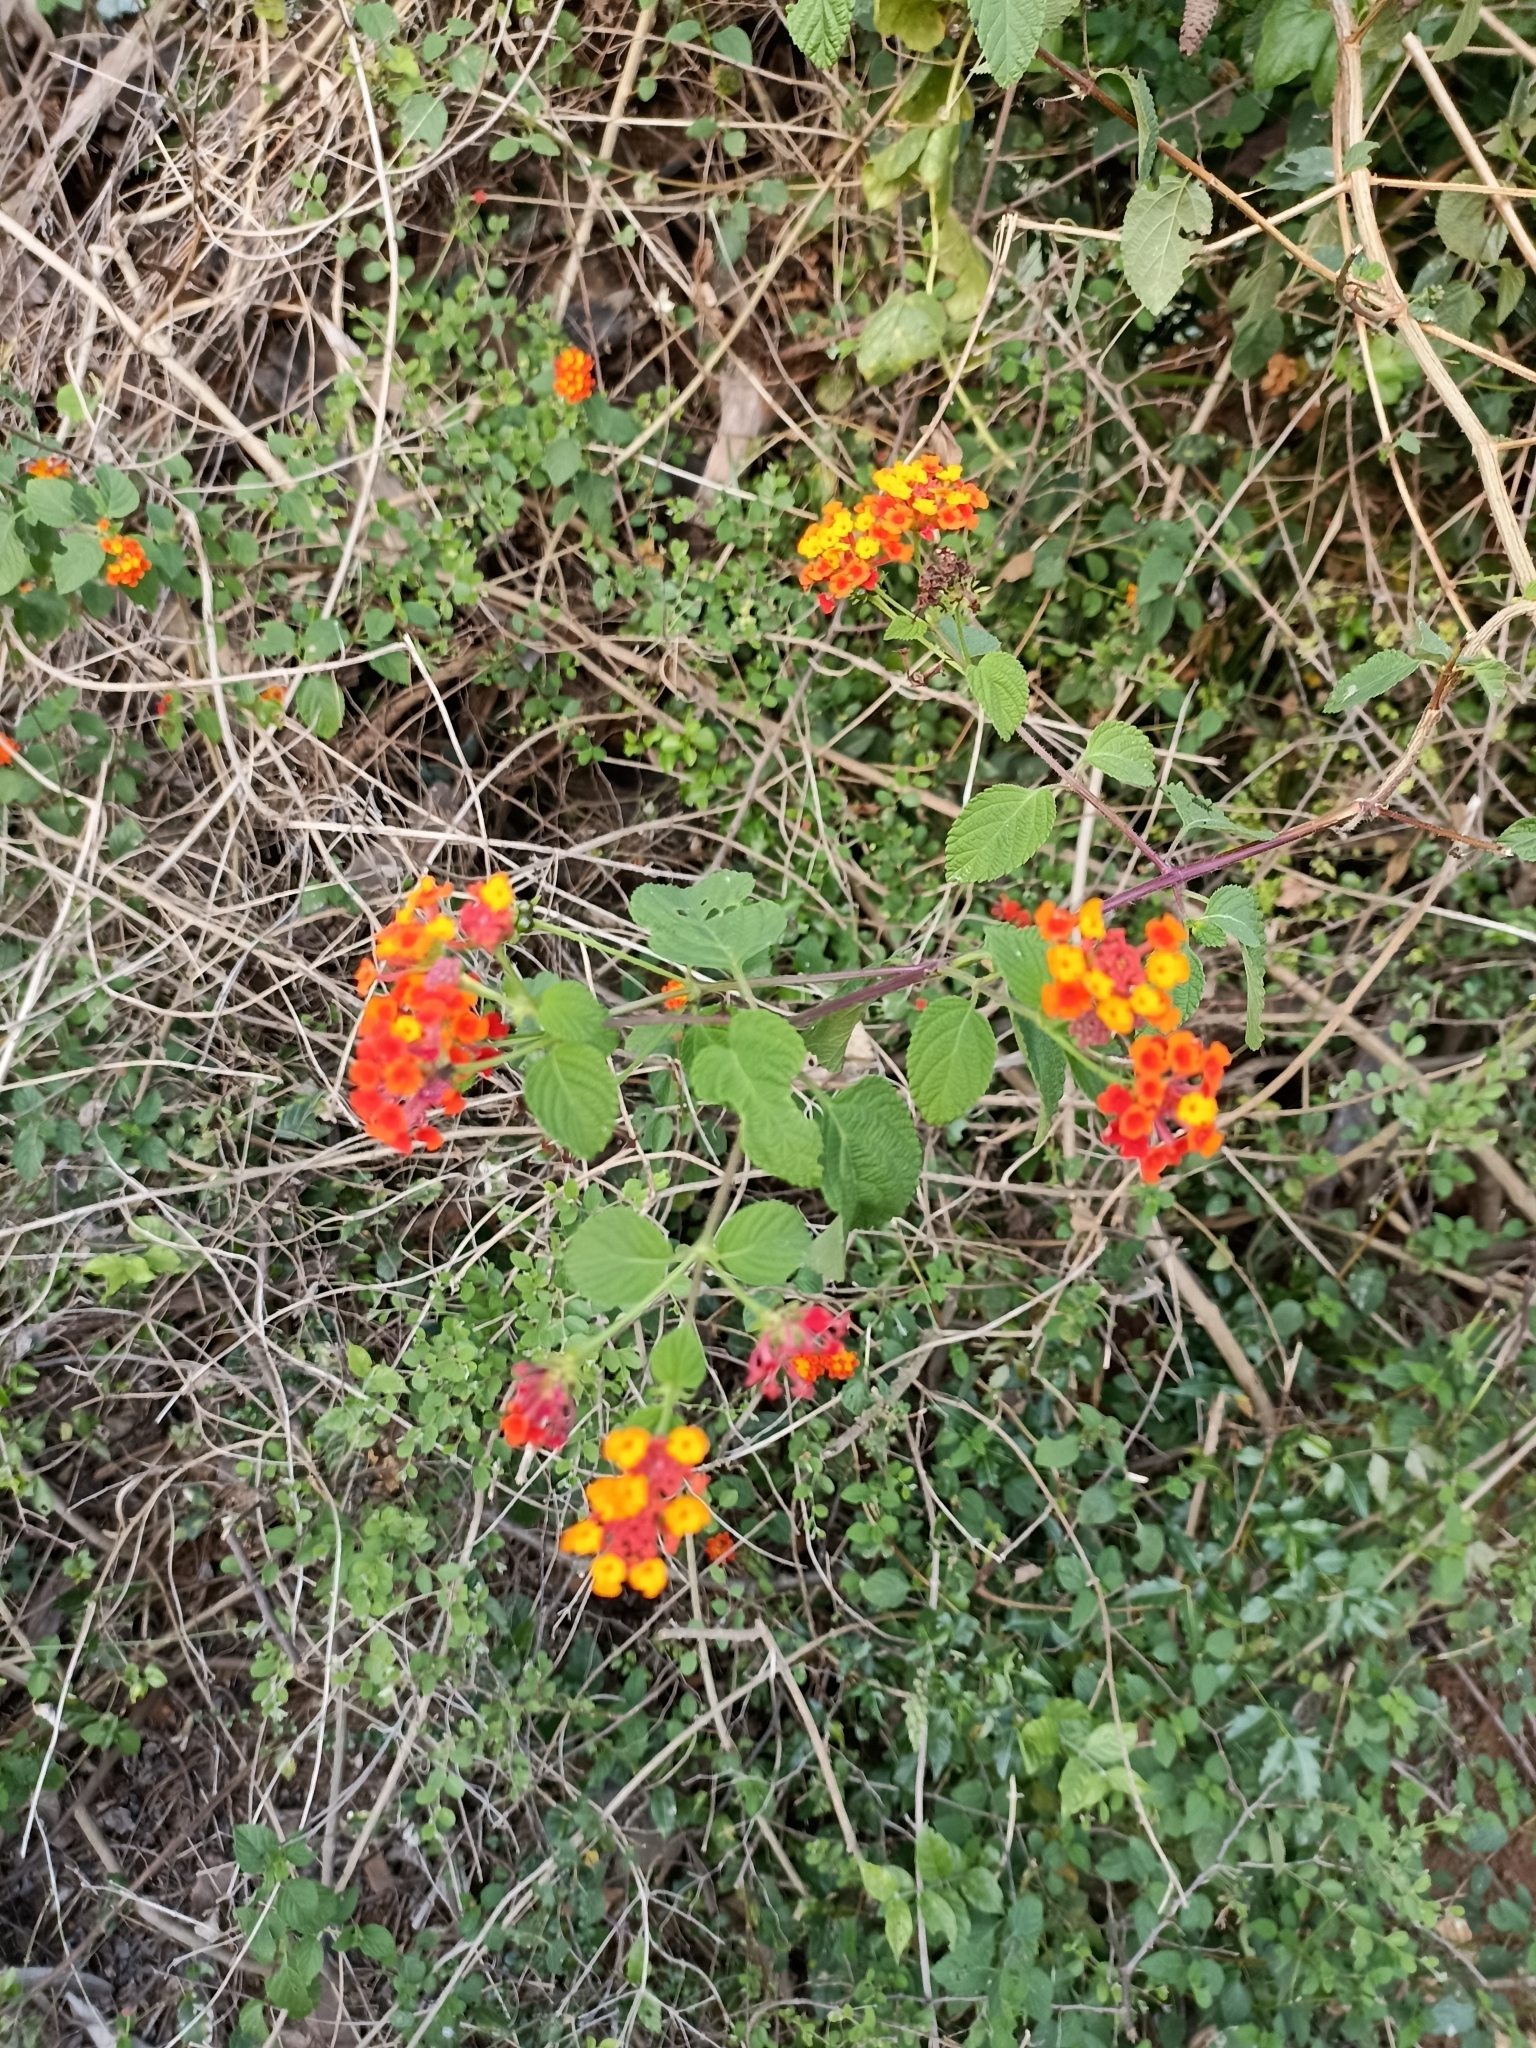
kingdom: Plantae
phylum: Tracheophyta
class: Magnoliopsida
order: Lamiales
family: Verbenaceae
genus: Lantana
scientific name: Lantana camara
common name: Lantana
